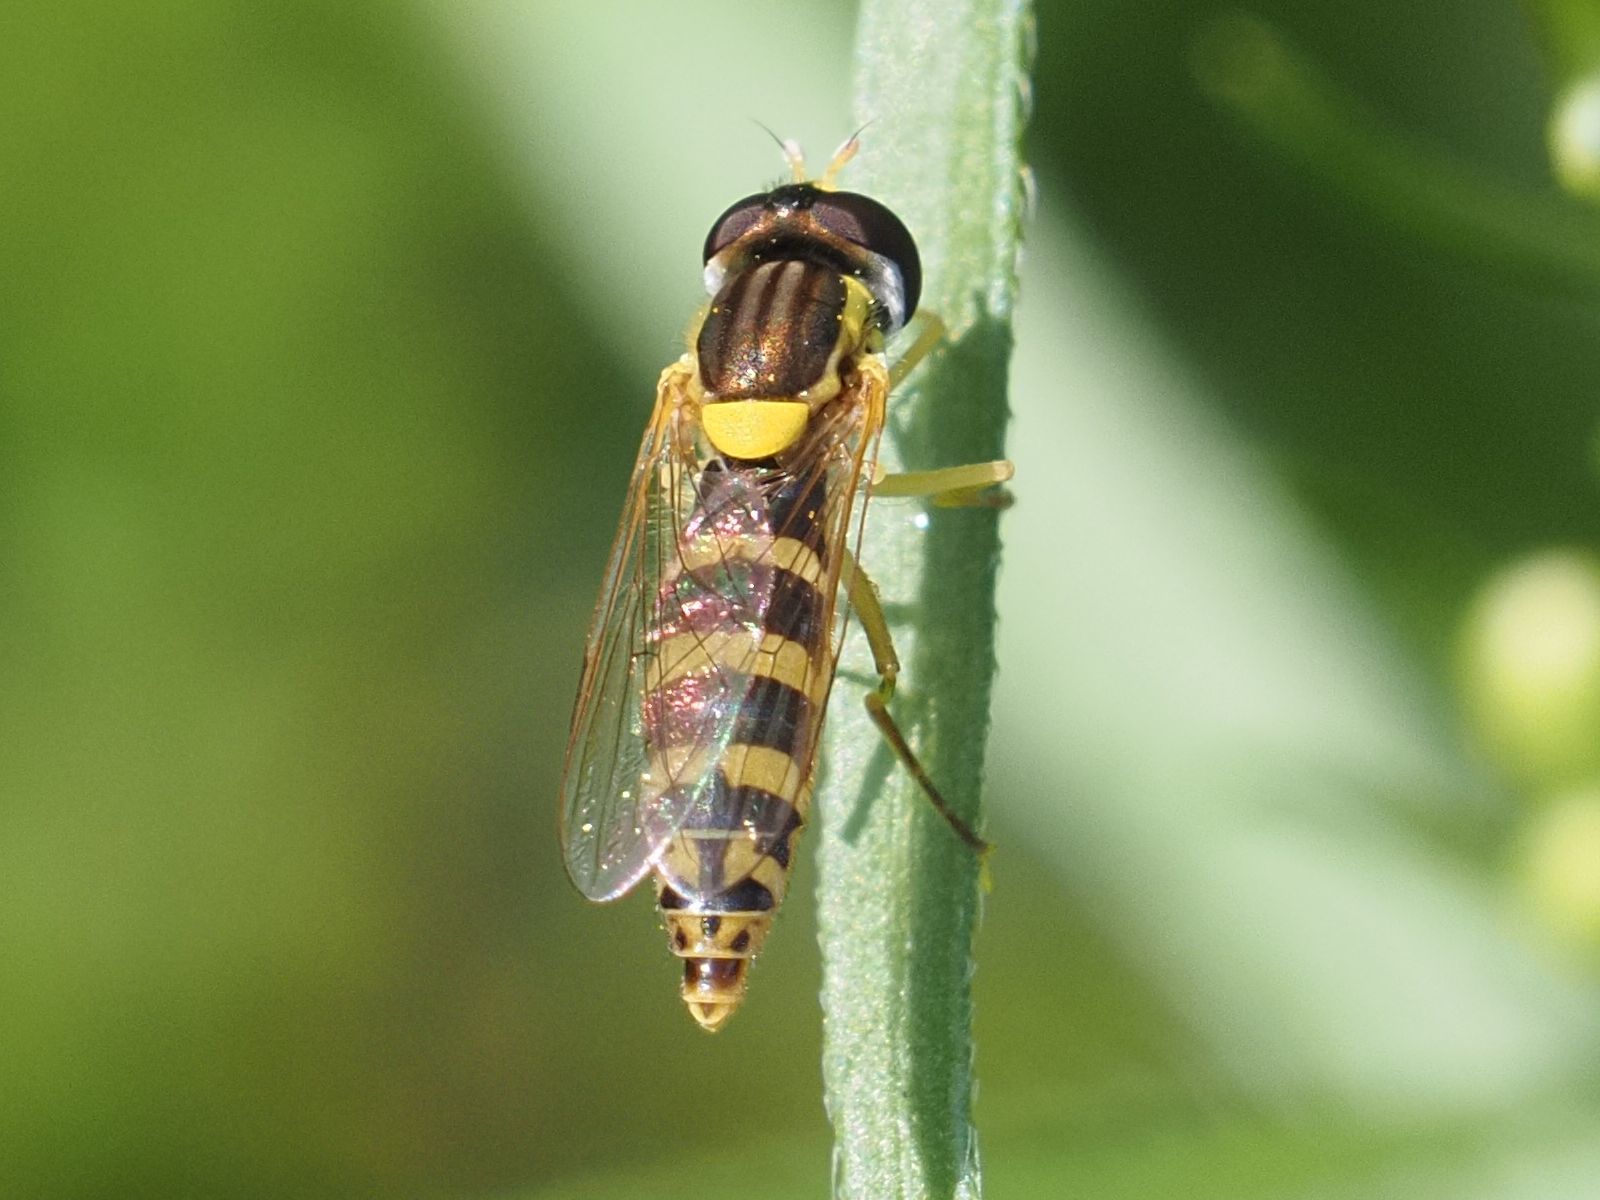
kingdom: Animalia
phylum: Arthropoda
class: Insecta
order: Diptera
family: Syrphidae
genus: Sphaerophoria
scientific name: Sphaerophoria
